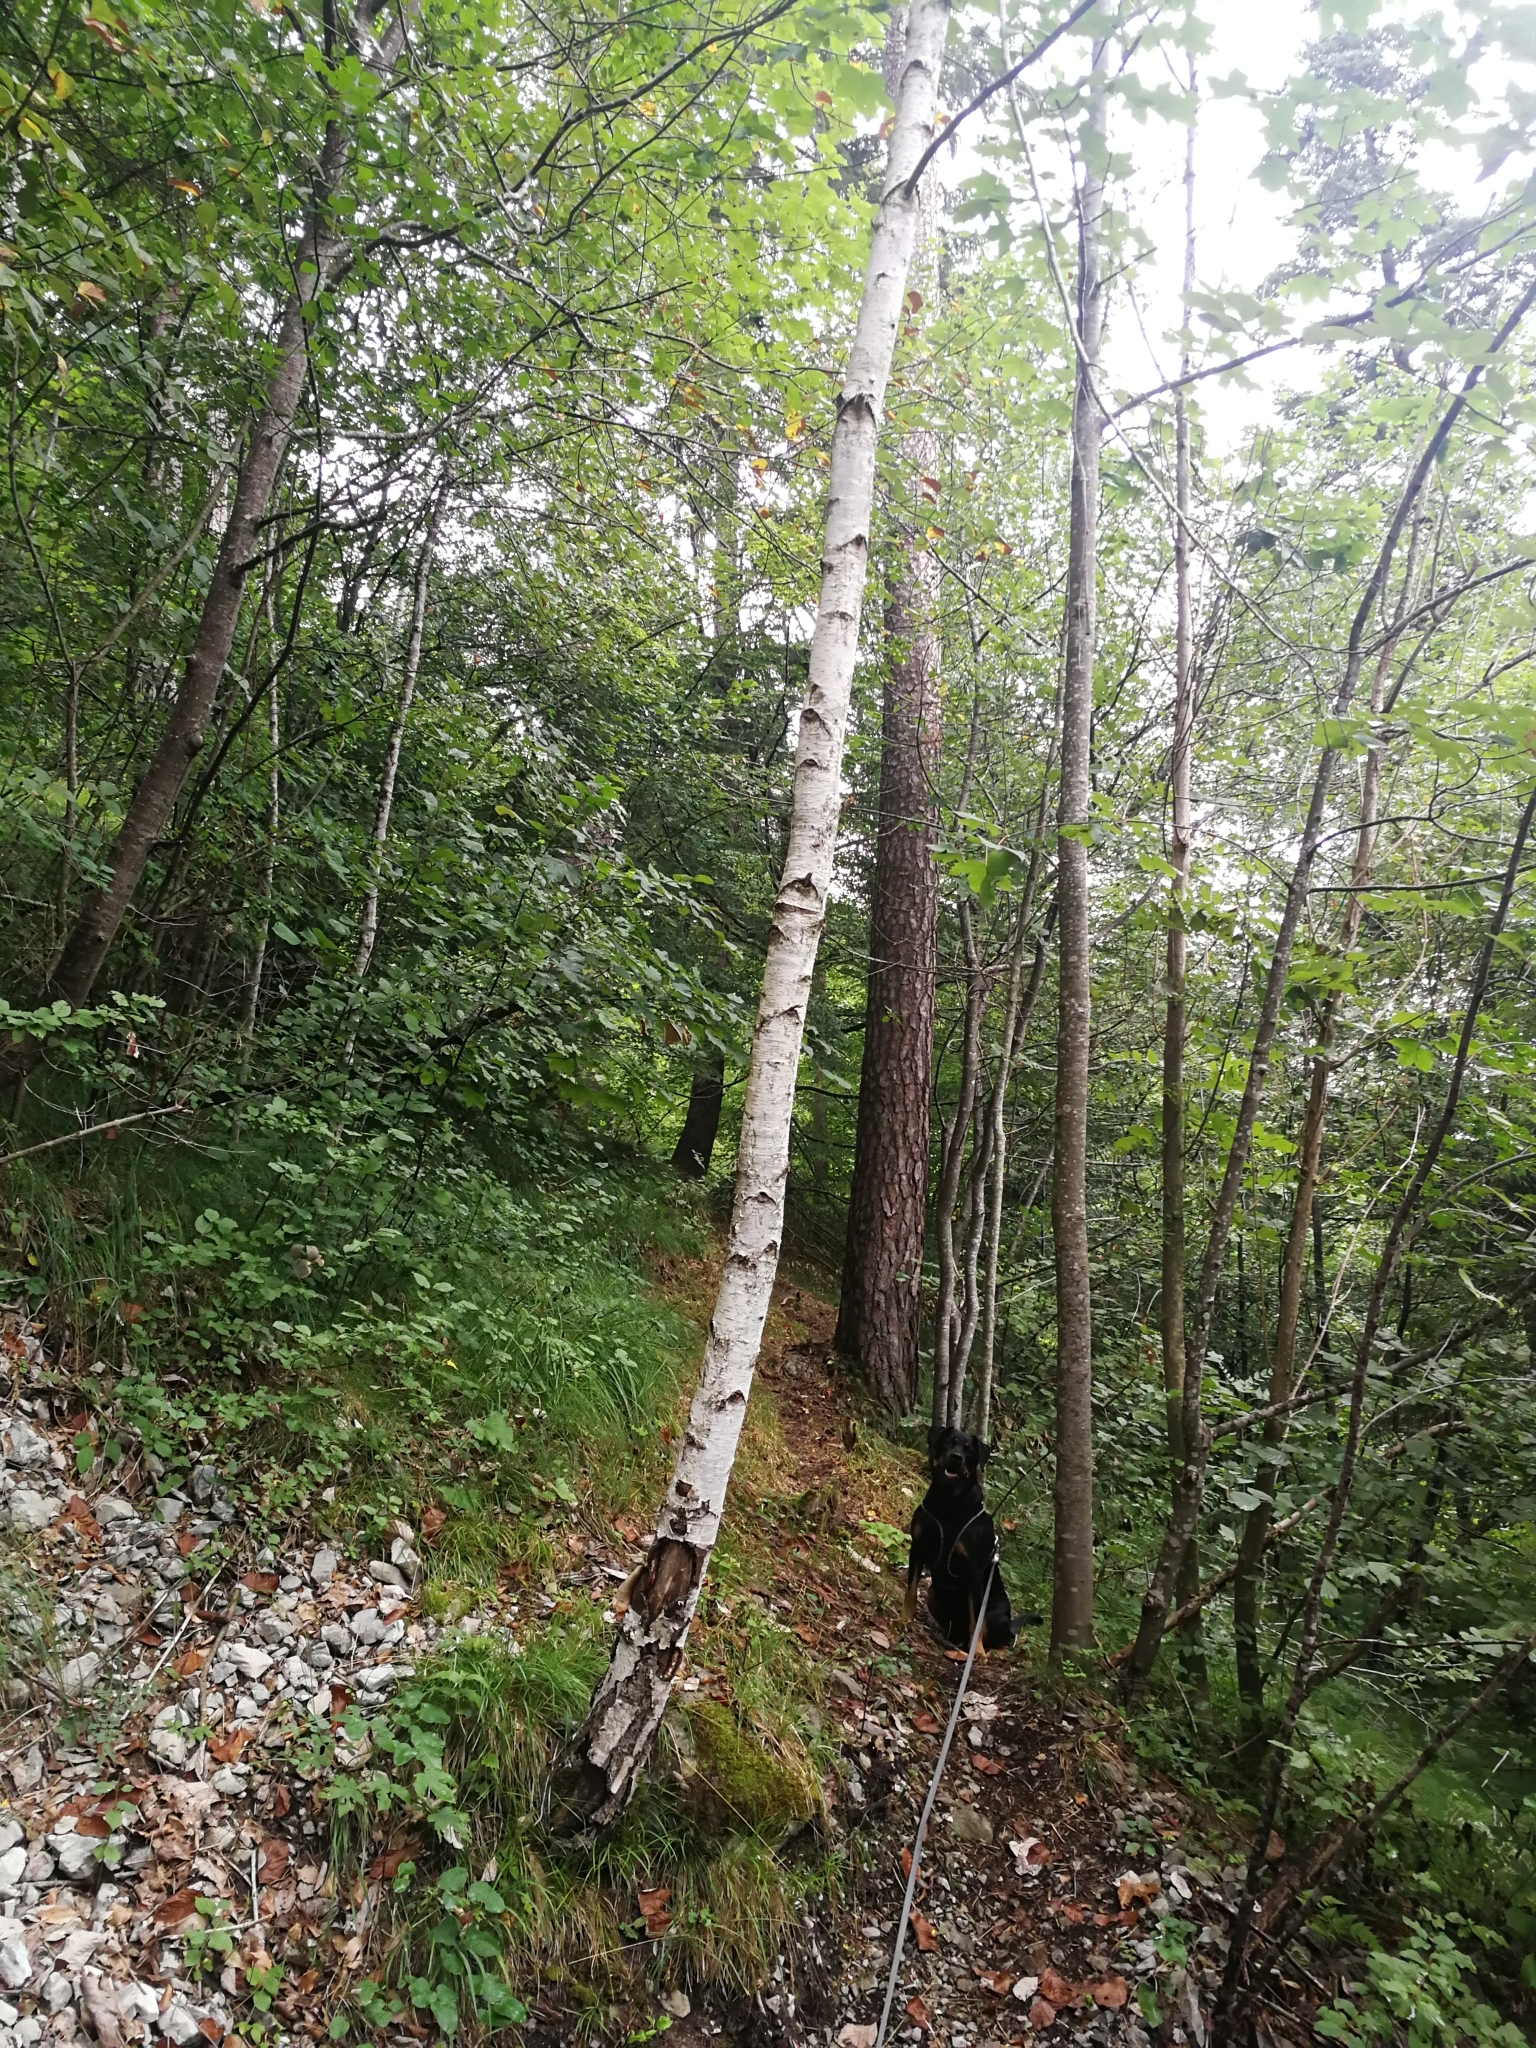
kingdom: Plantae
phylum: Tracheophyta
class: Magnoliopsida
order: Fagales
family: Betulaceae
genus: Betula
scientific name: Betula pendula
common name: Silver birch
